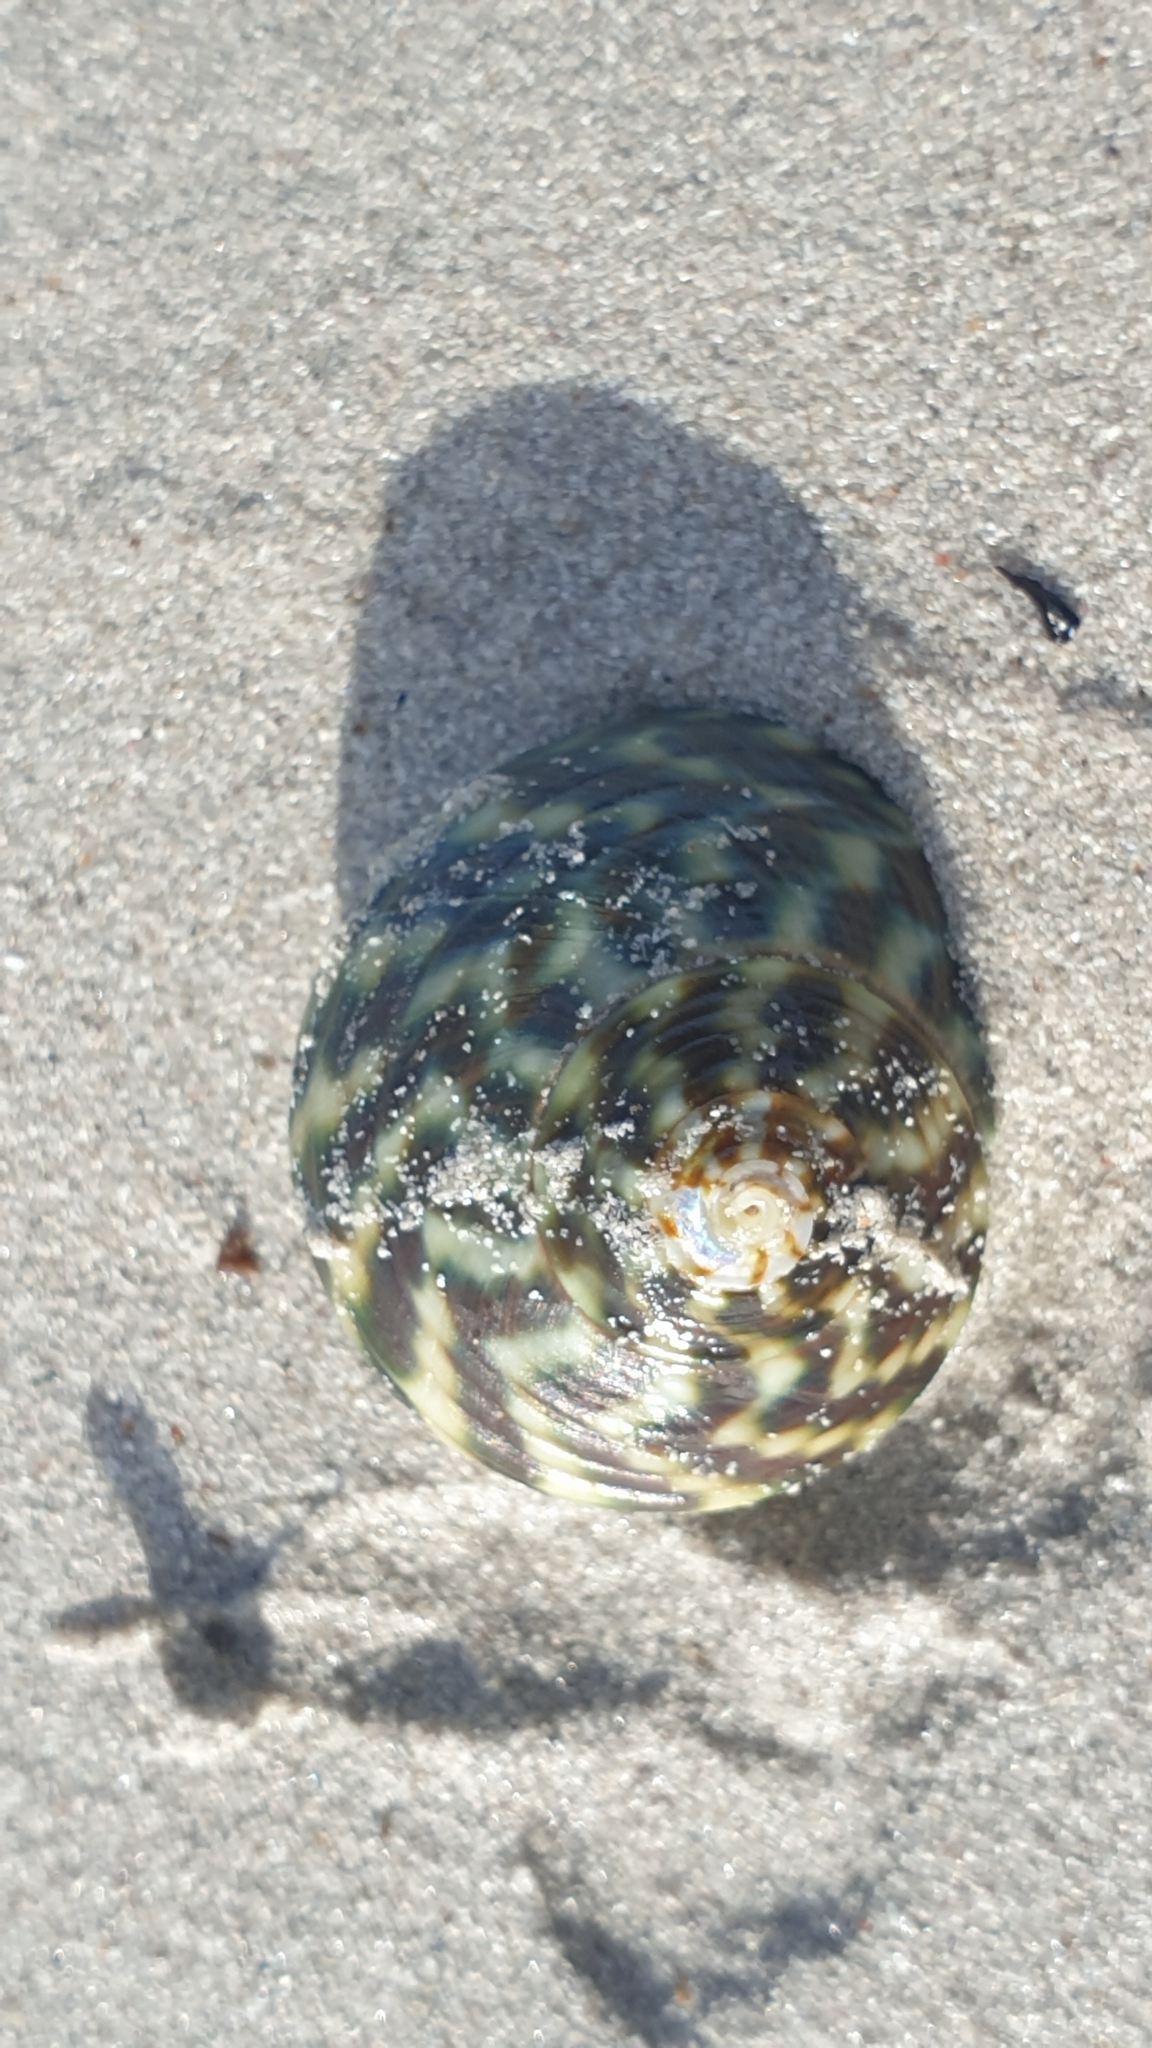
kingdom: Animalia
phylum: Mollusca
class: Gastropoda
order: Trochida
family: Turbinidae
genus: Lunella
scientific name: Lunella undulata
